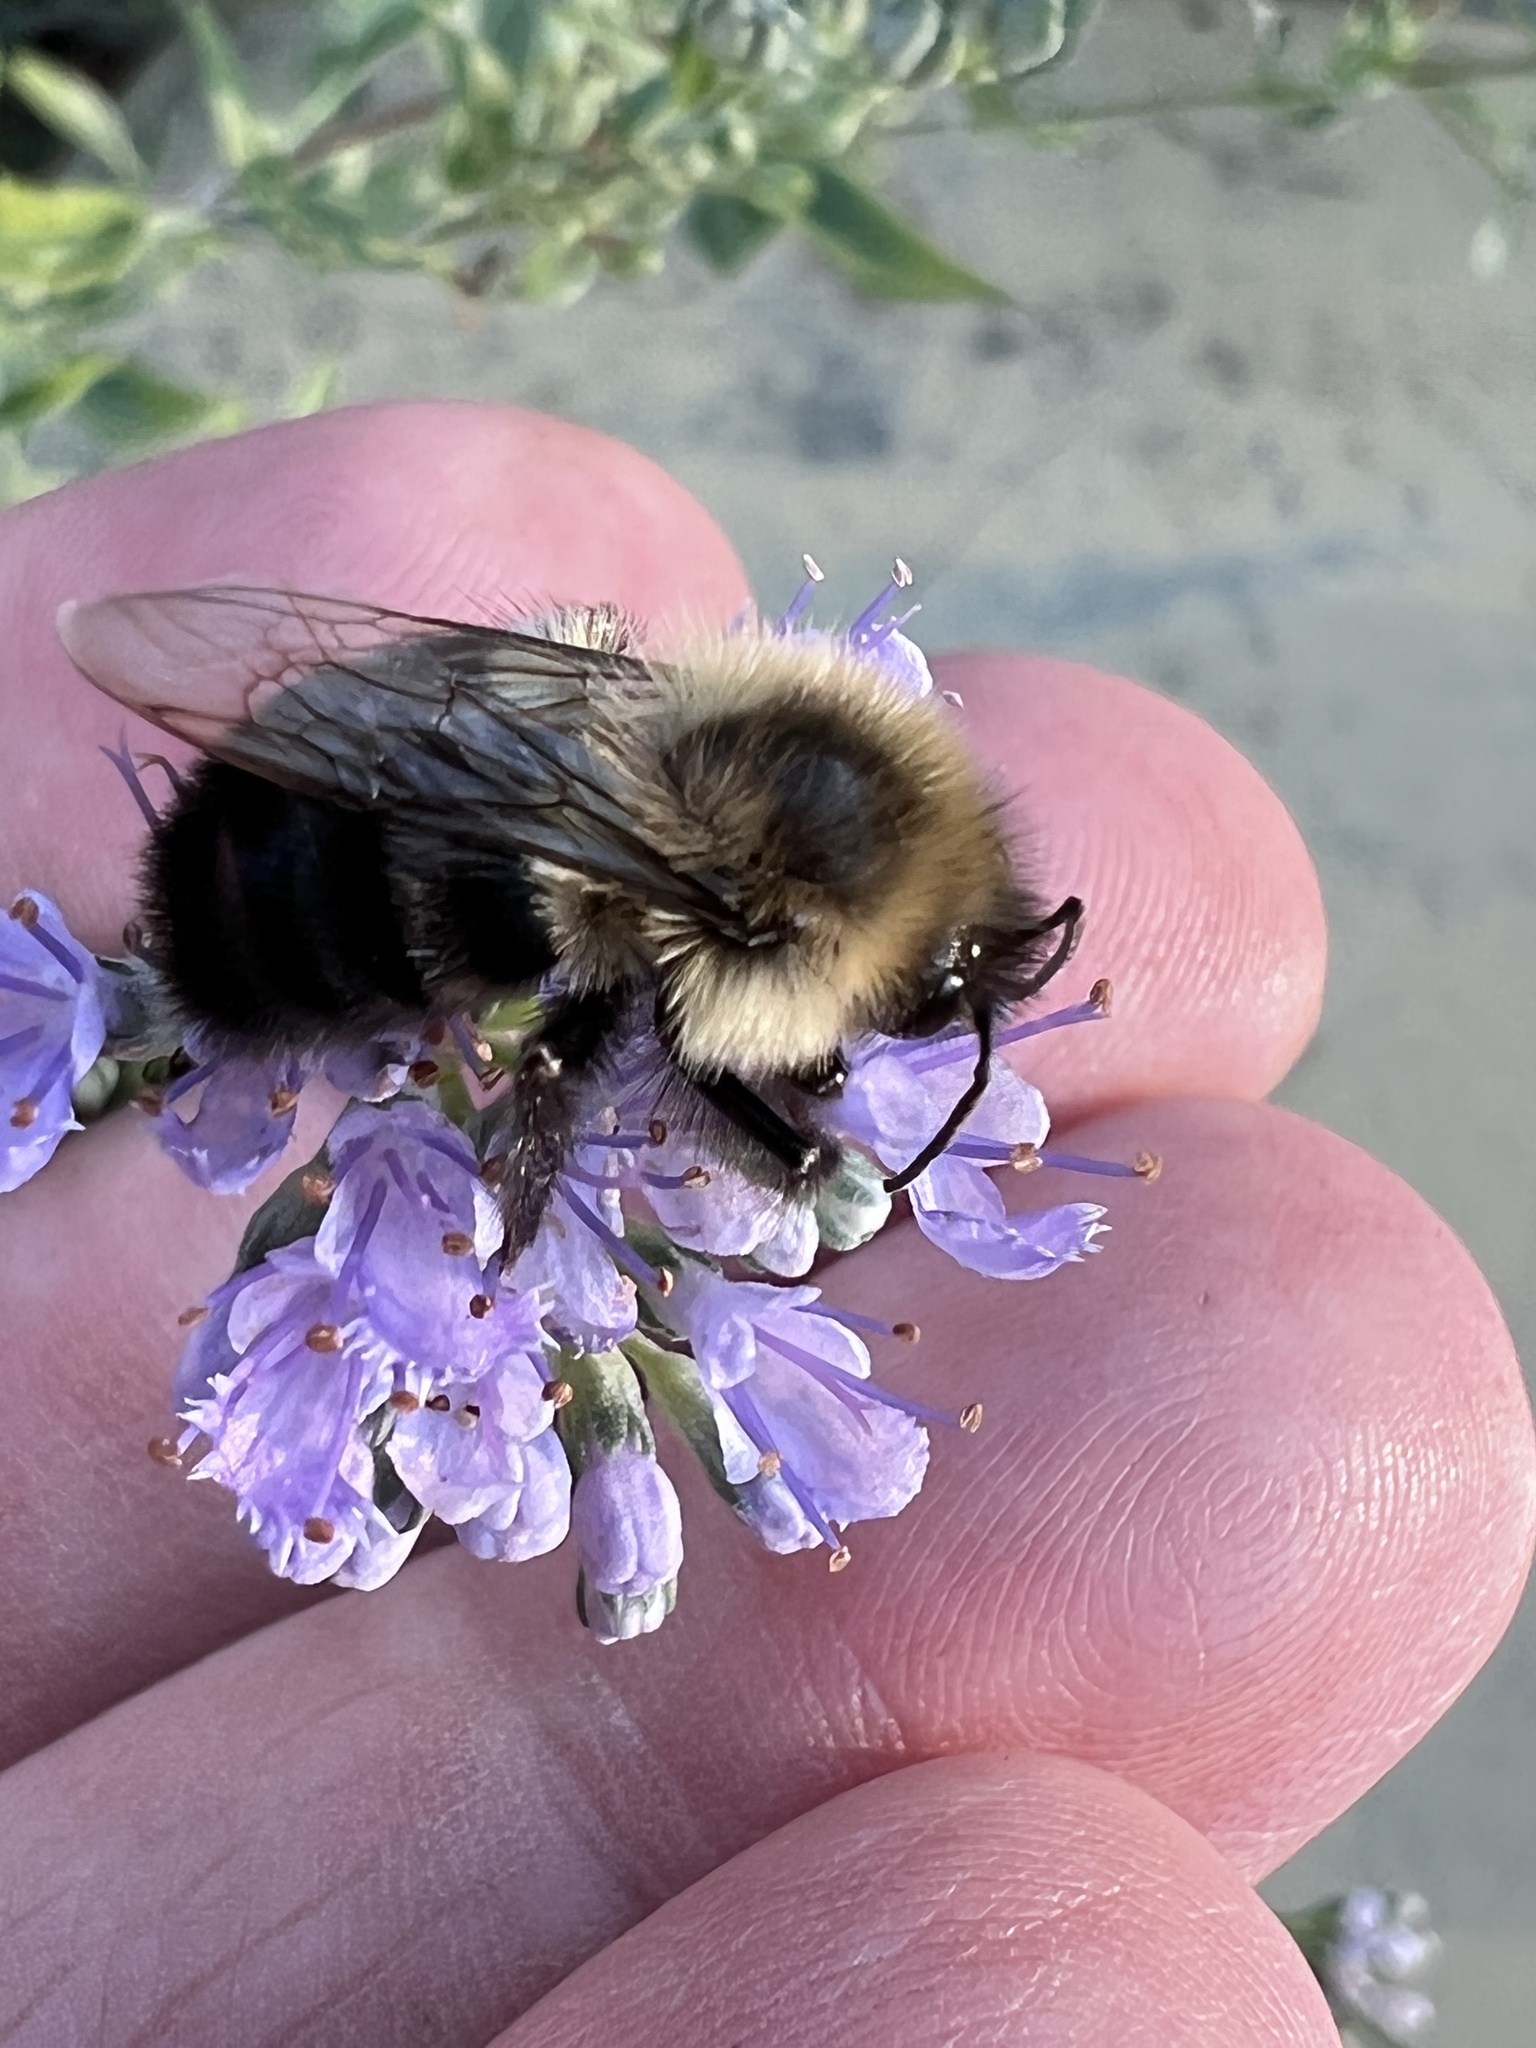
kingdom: Animalia
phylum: Arthropoda
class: Insecta
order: Hymenoptera
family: Apidae
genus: Bombus
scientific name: Bombus impatiens
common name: Common eastern bumble bee
